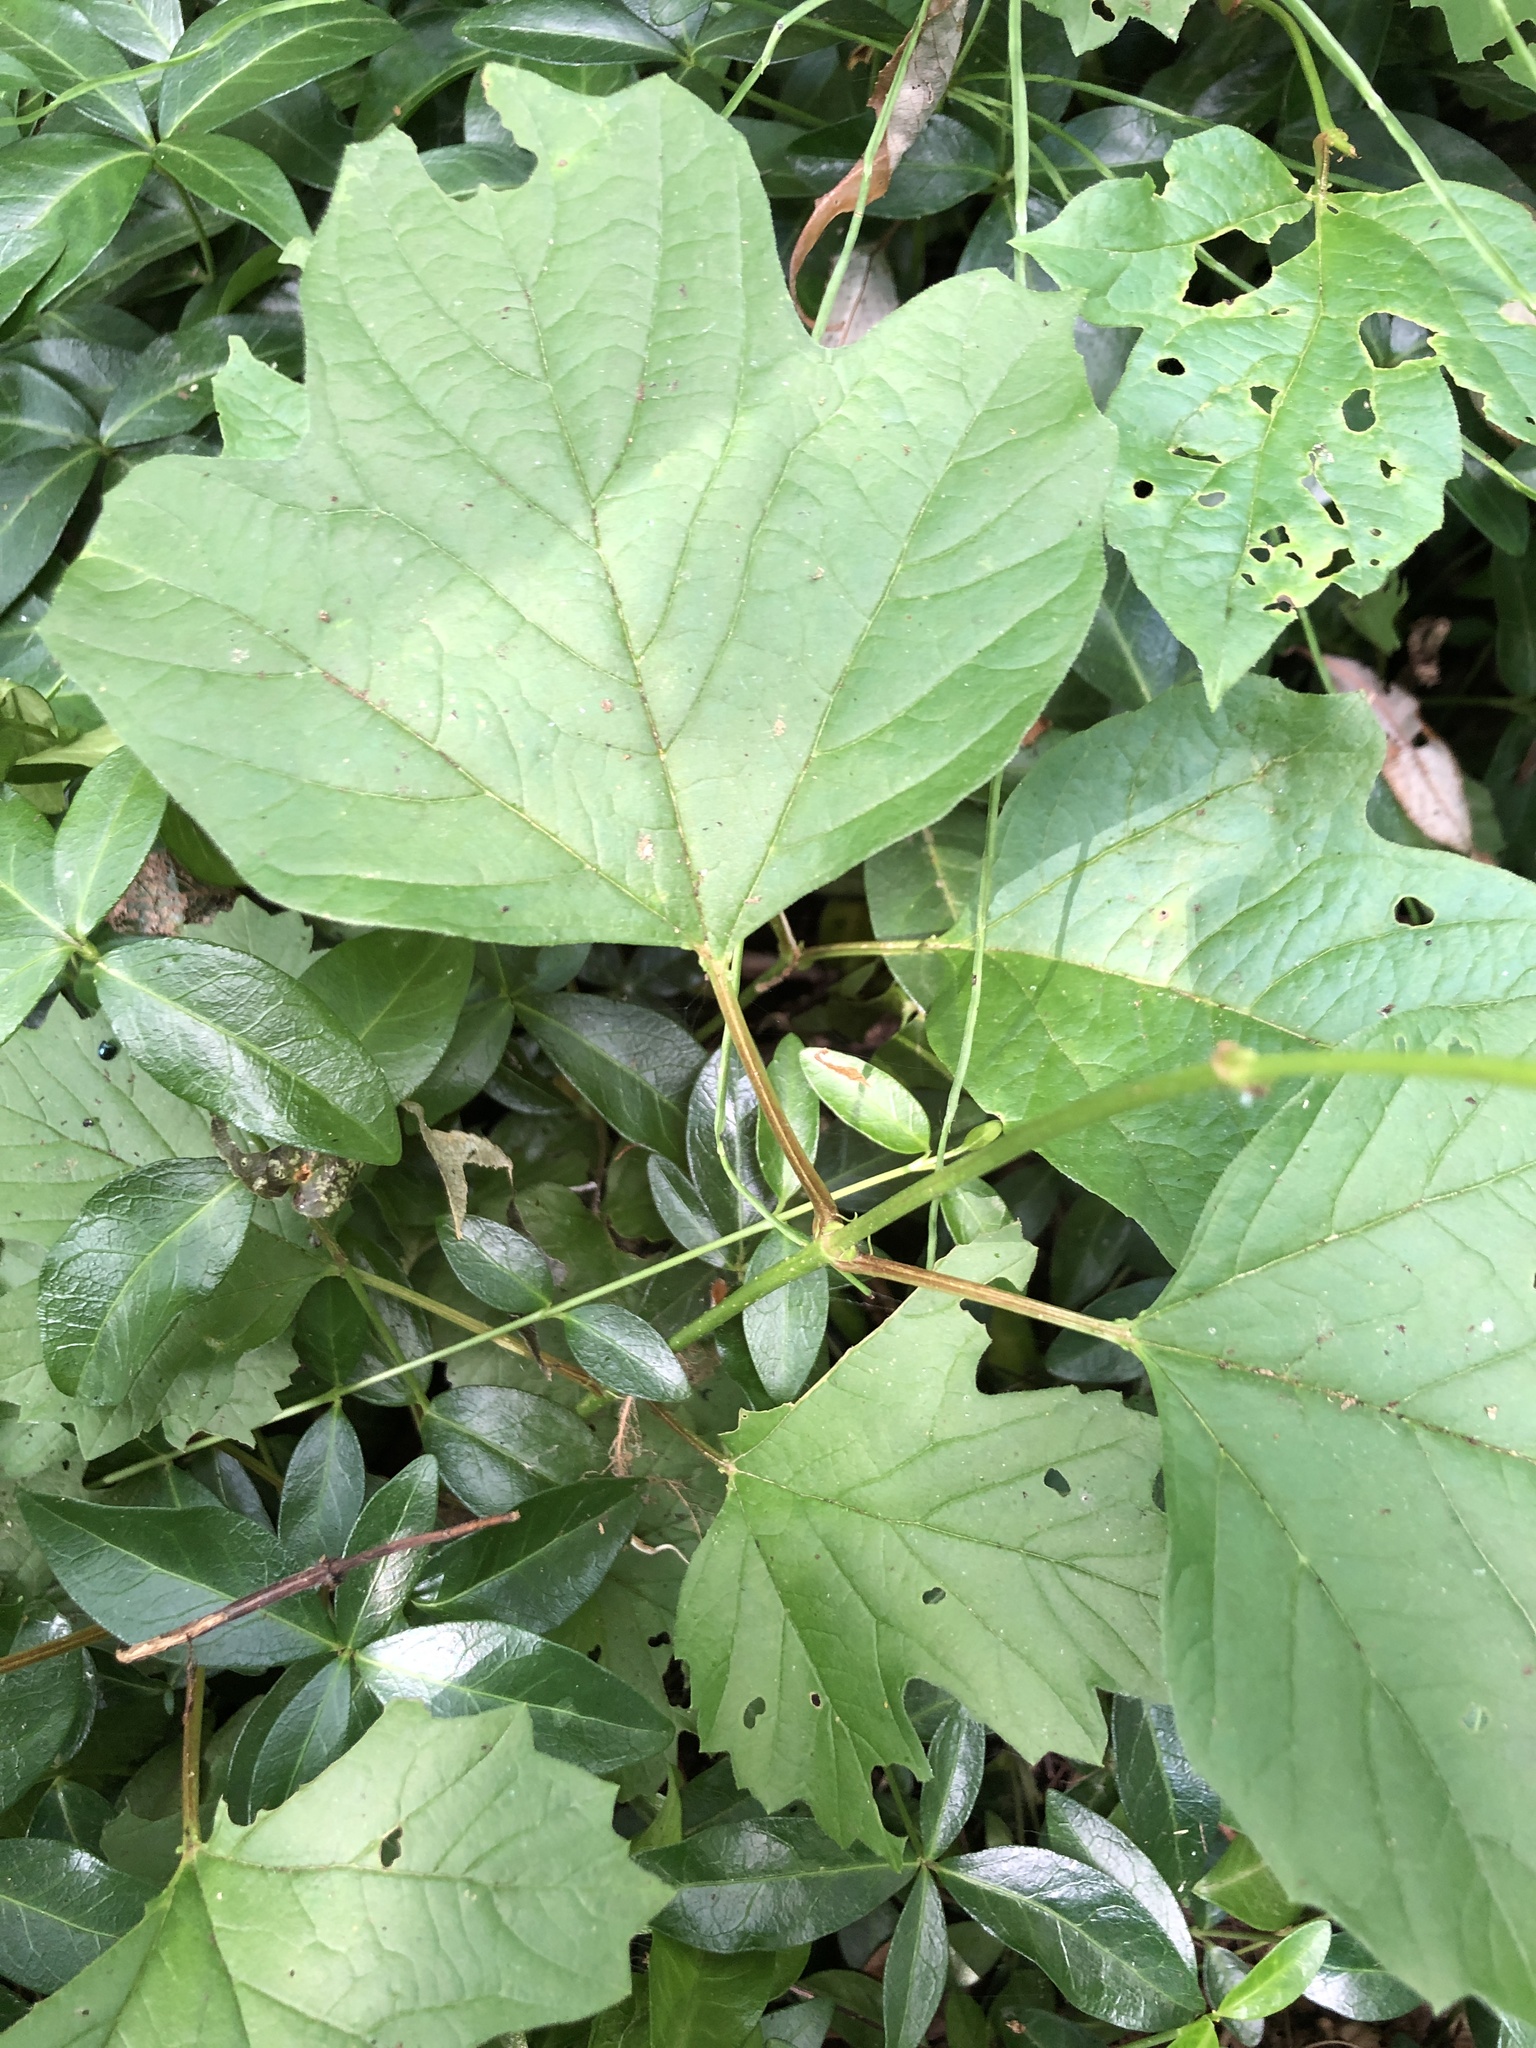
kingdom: Plantae
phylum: Tracheophyta
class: Magnoliopsida
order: Dipsacales
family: Viburnaceae
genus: Viburnum
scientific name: Viburnum opulus
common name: Guelder-rose
